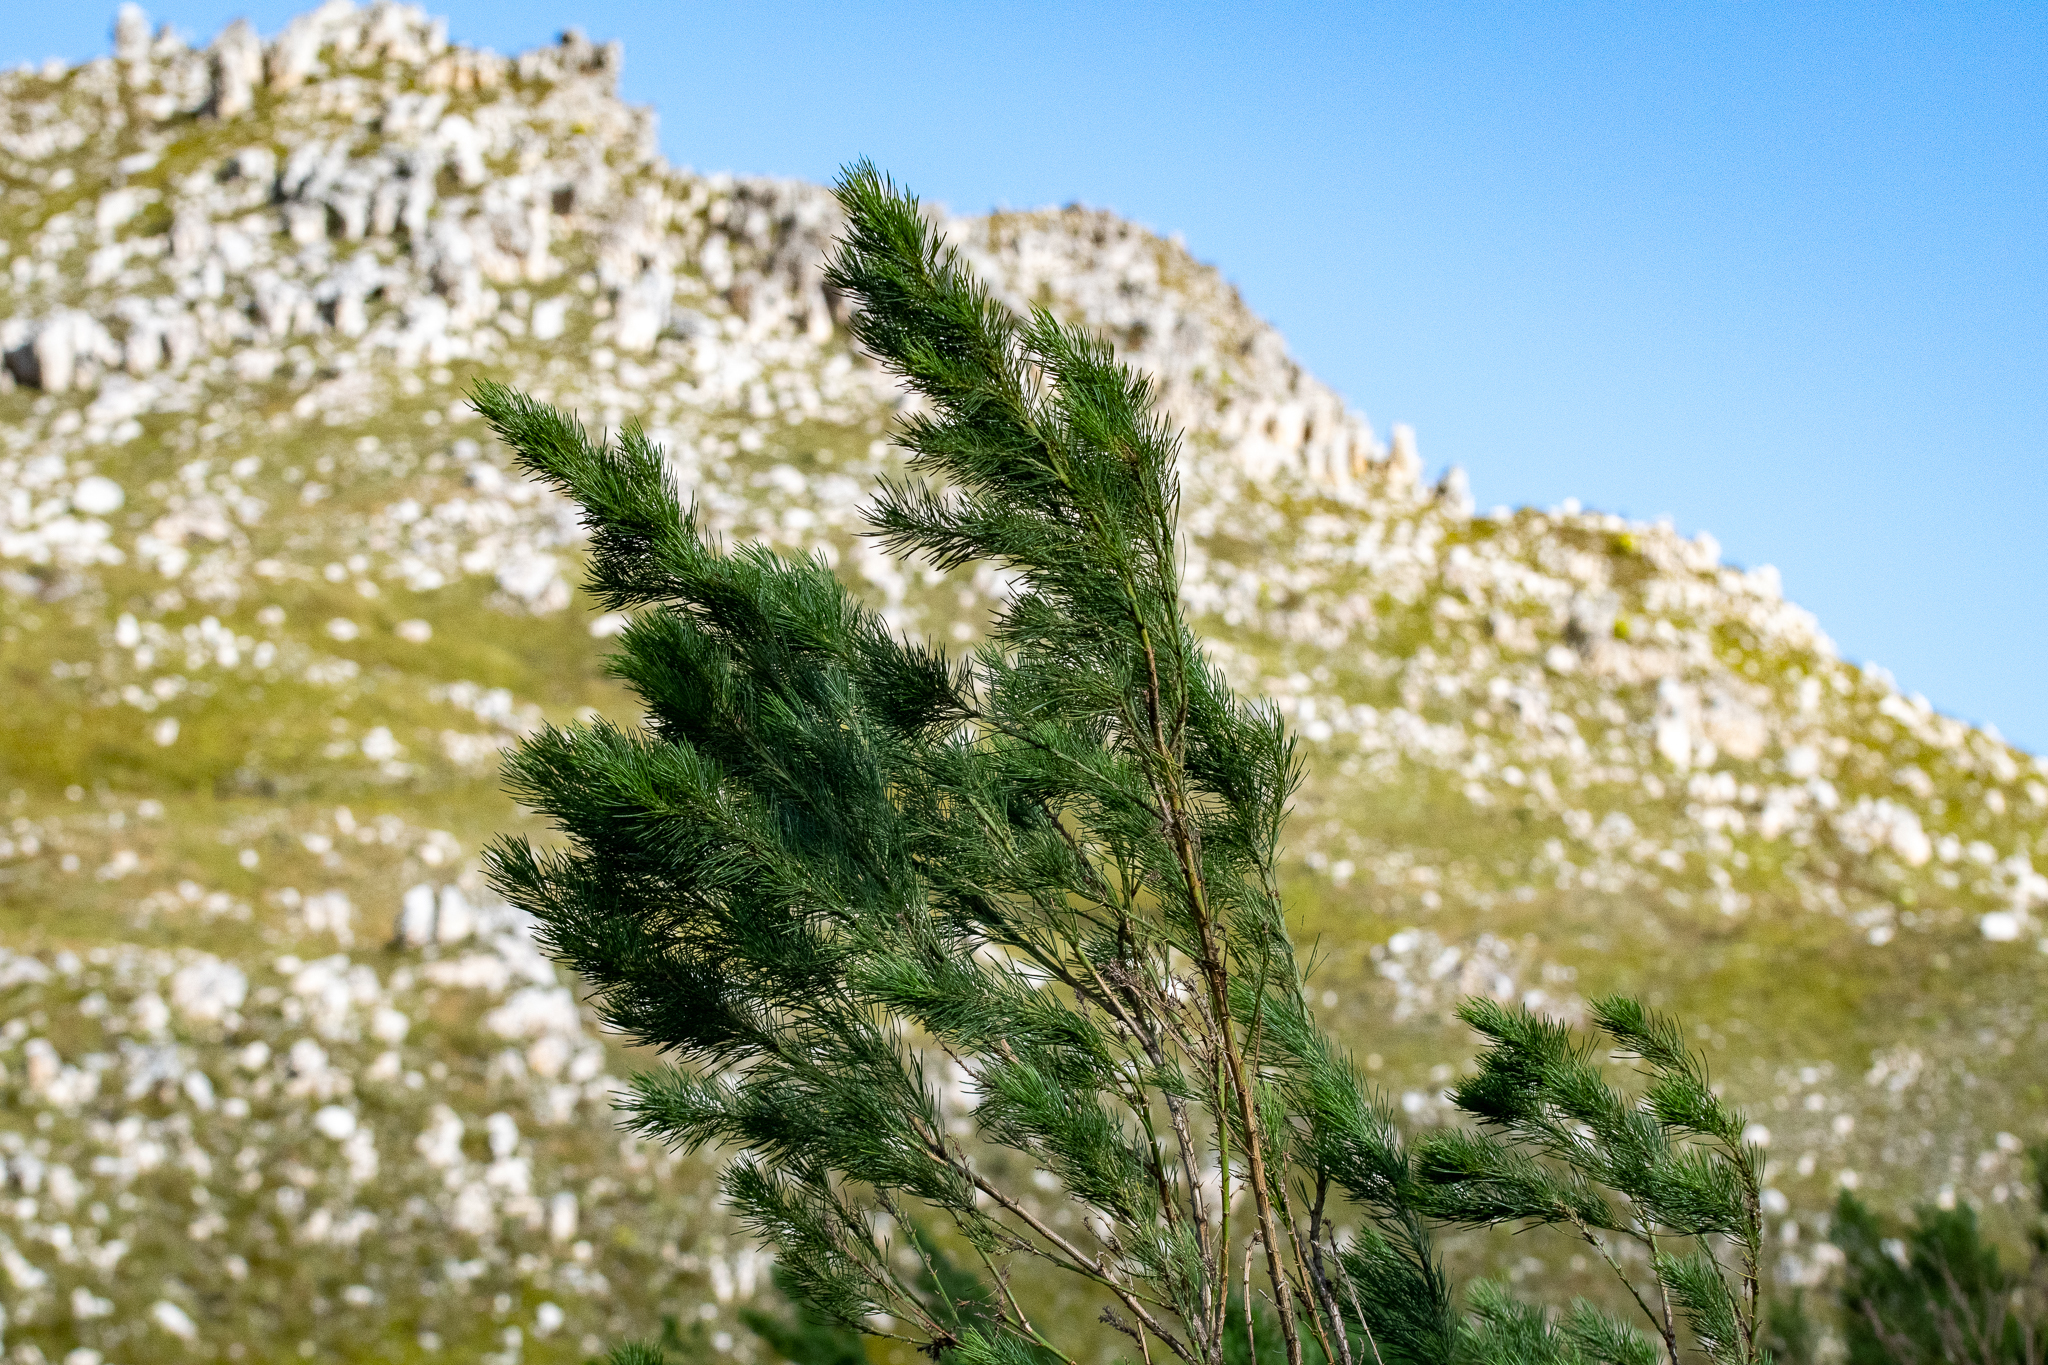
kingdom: Plantae
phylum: Tracheophyta
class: Magnoliopsida
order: Fabales
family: Fabaceae
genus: Psoralea
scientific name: Psoralea pinnata
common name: African scurfpea
